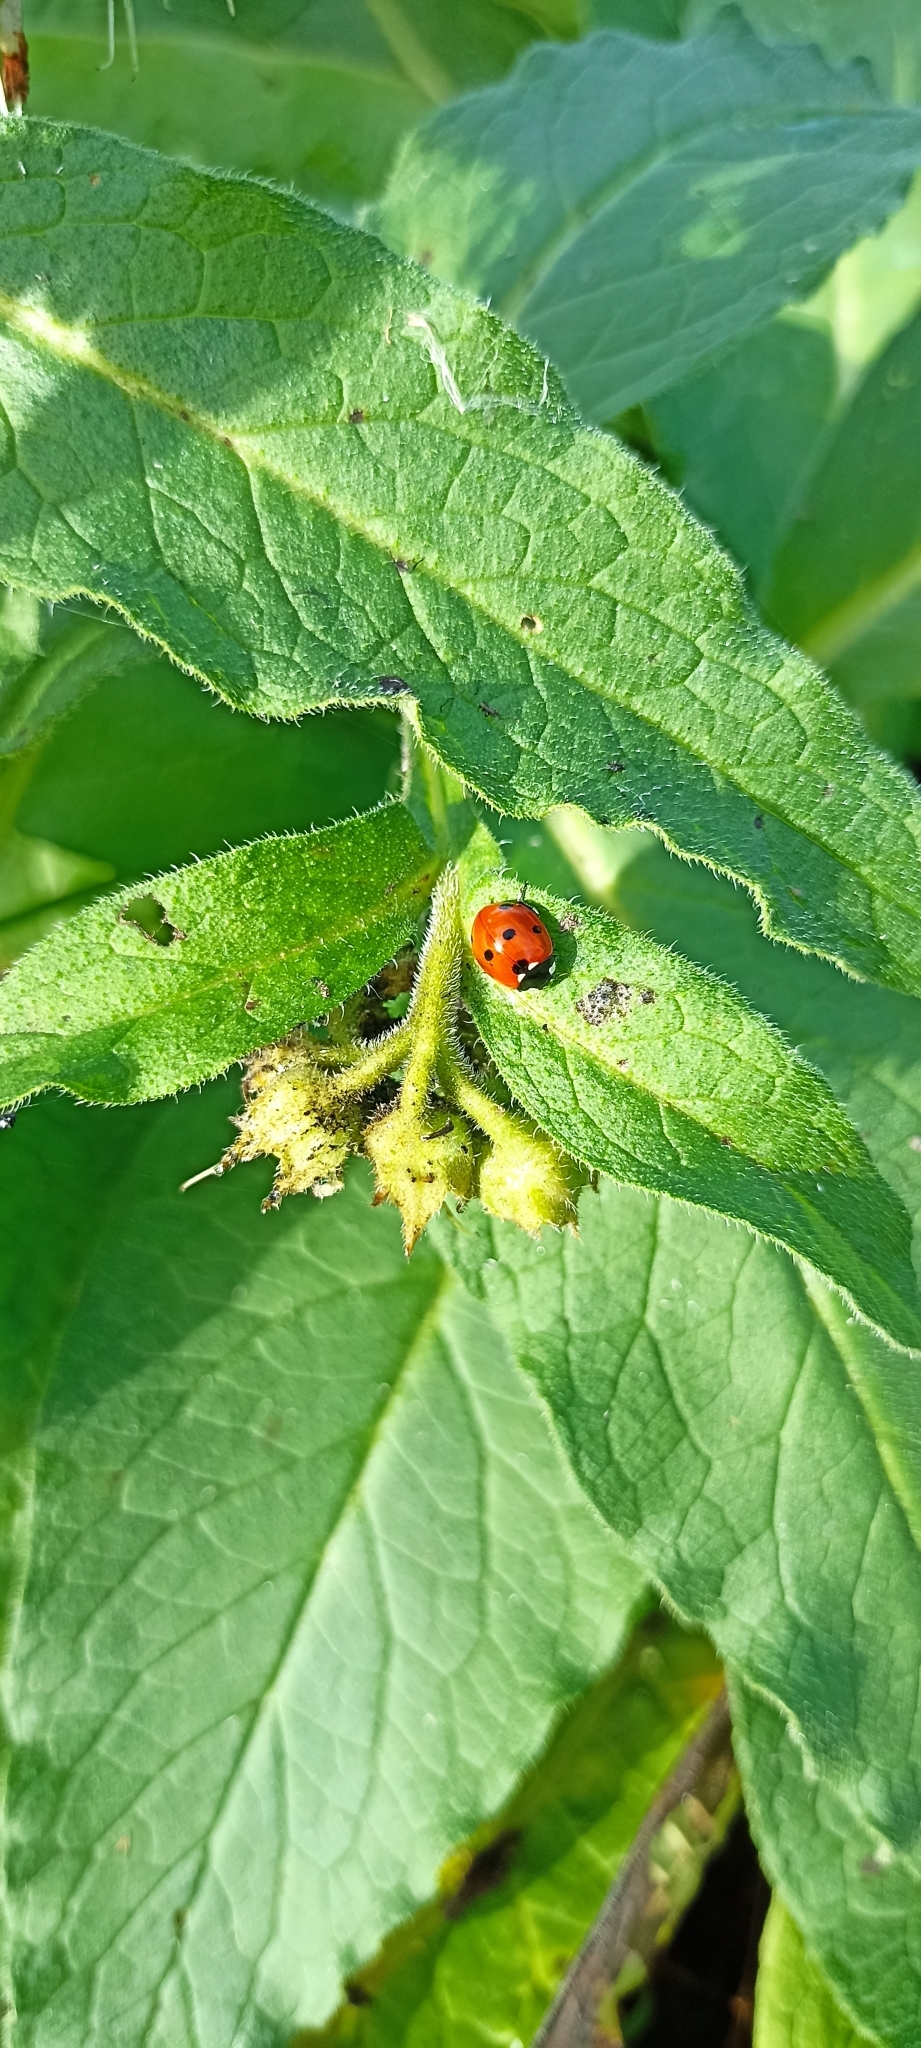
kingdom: Animalia
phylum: Arthropoda
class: Insecta
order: Coleoptera
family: Coccinellidae
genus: Coccinella
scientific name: Coccinella septempunctata
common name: Sevenspotted lady beetle
